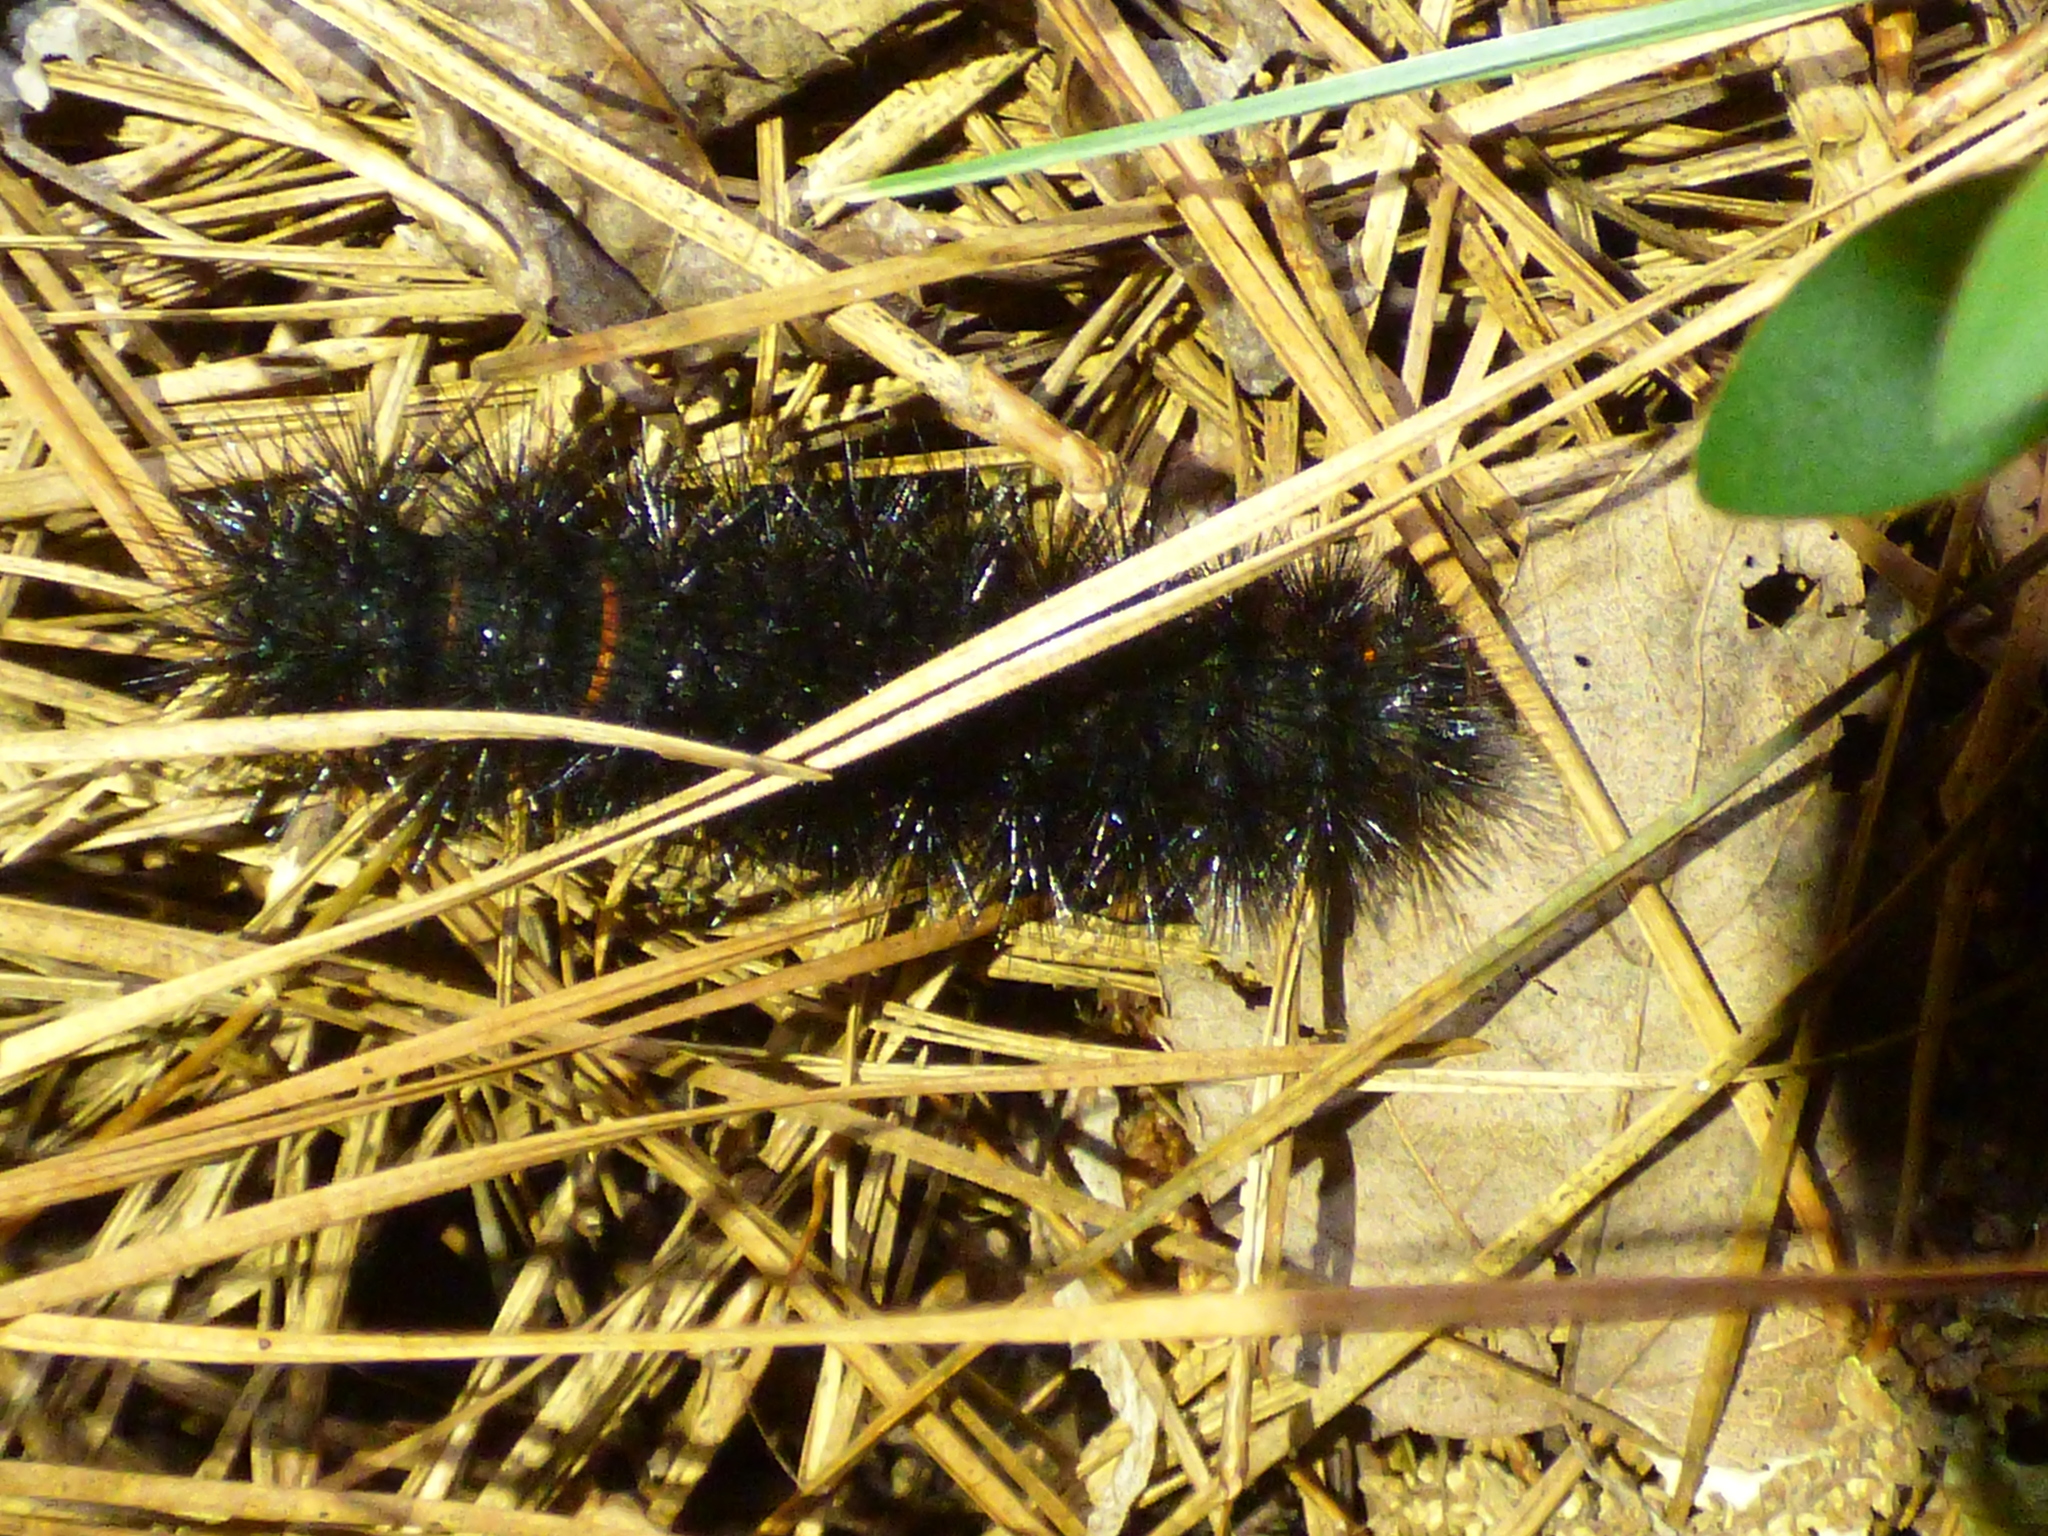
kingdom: Animalia
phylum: Arthropoda
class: Insecta
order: Lepidoptera
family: Erebidae
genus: Hypercompe
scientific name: Hypercompe scribonia
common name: Giant leopard moth
